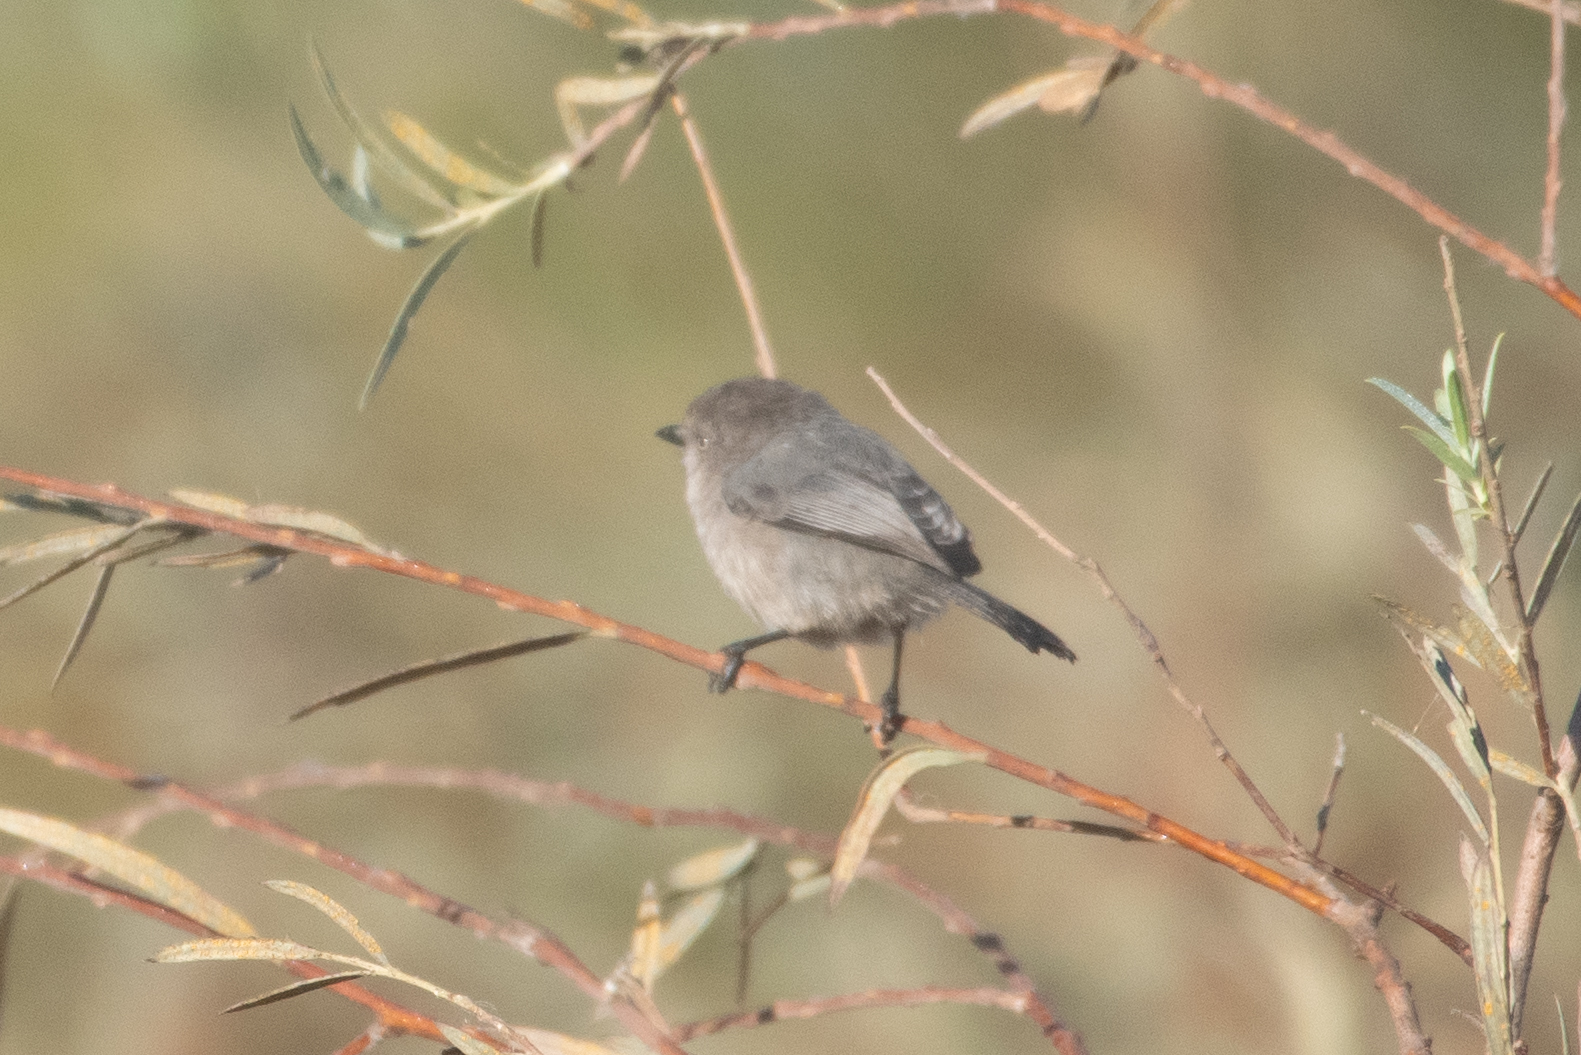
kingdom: Animalia
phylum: Chordata
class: Aves
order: Passeriformes
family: Aegithalidae
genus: Psaltriparus
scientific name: Psaltriparus minimus
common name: American bushtit
